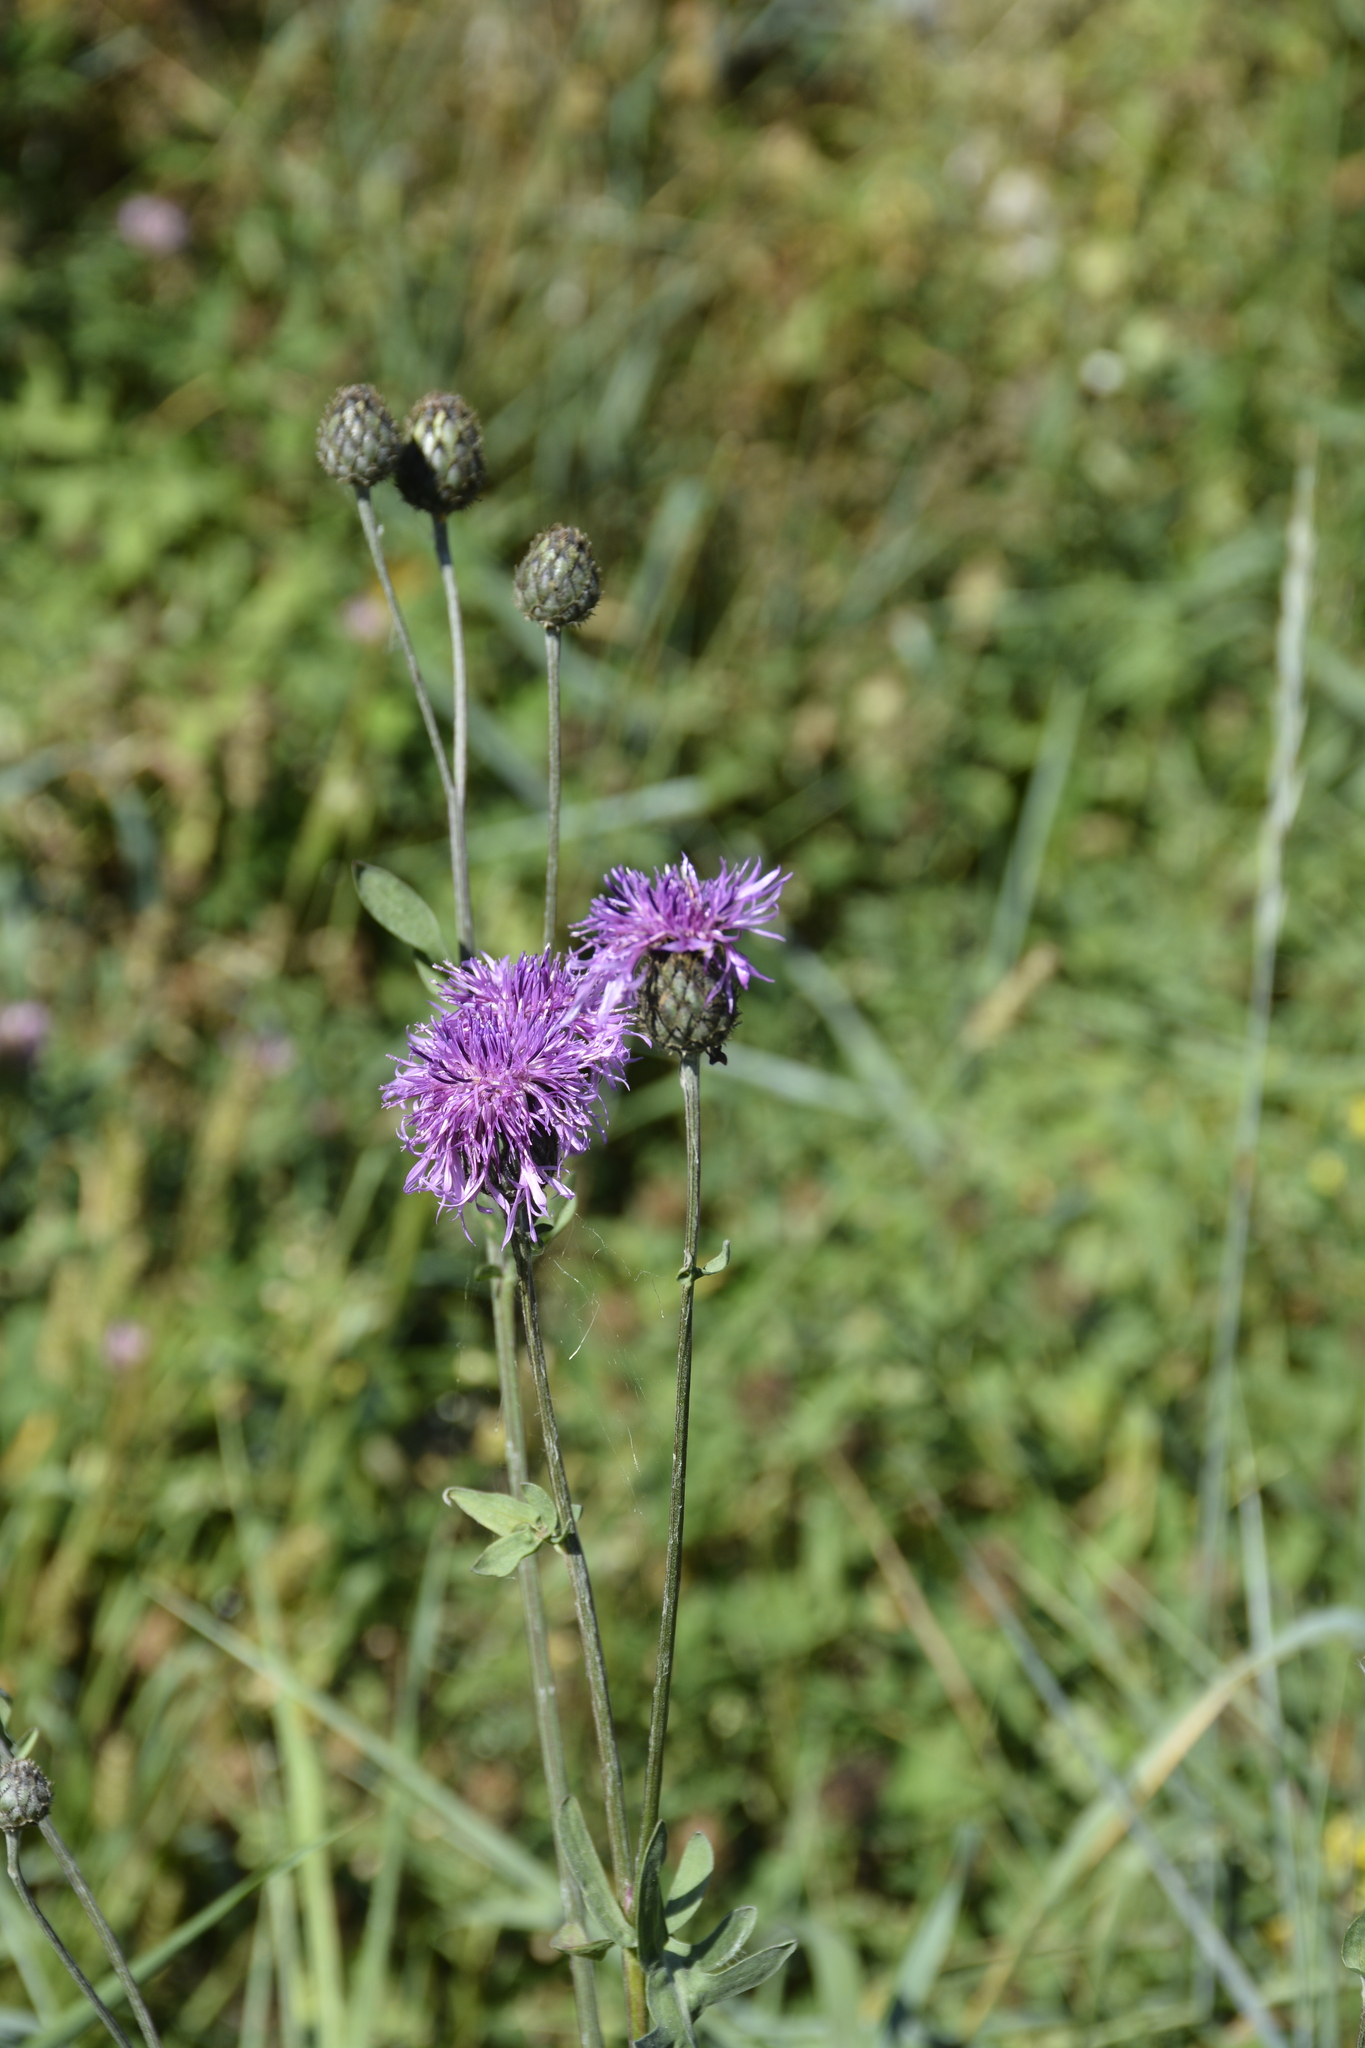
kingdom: Plantae
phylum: Tracheophyta
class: Magnoliopsida
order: Asterales
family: Asteraceae
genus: Centaurea
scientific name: Centaurea scabiosa
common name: Greater knapweed
